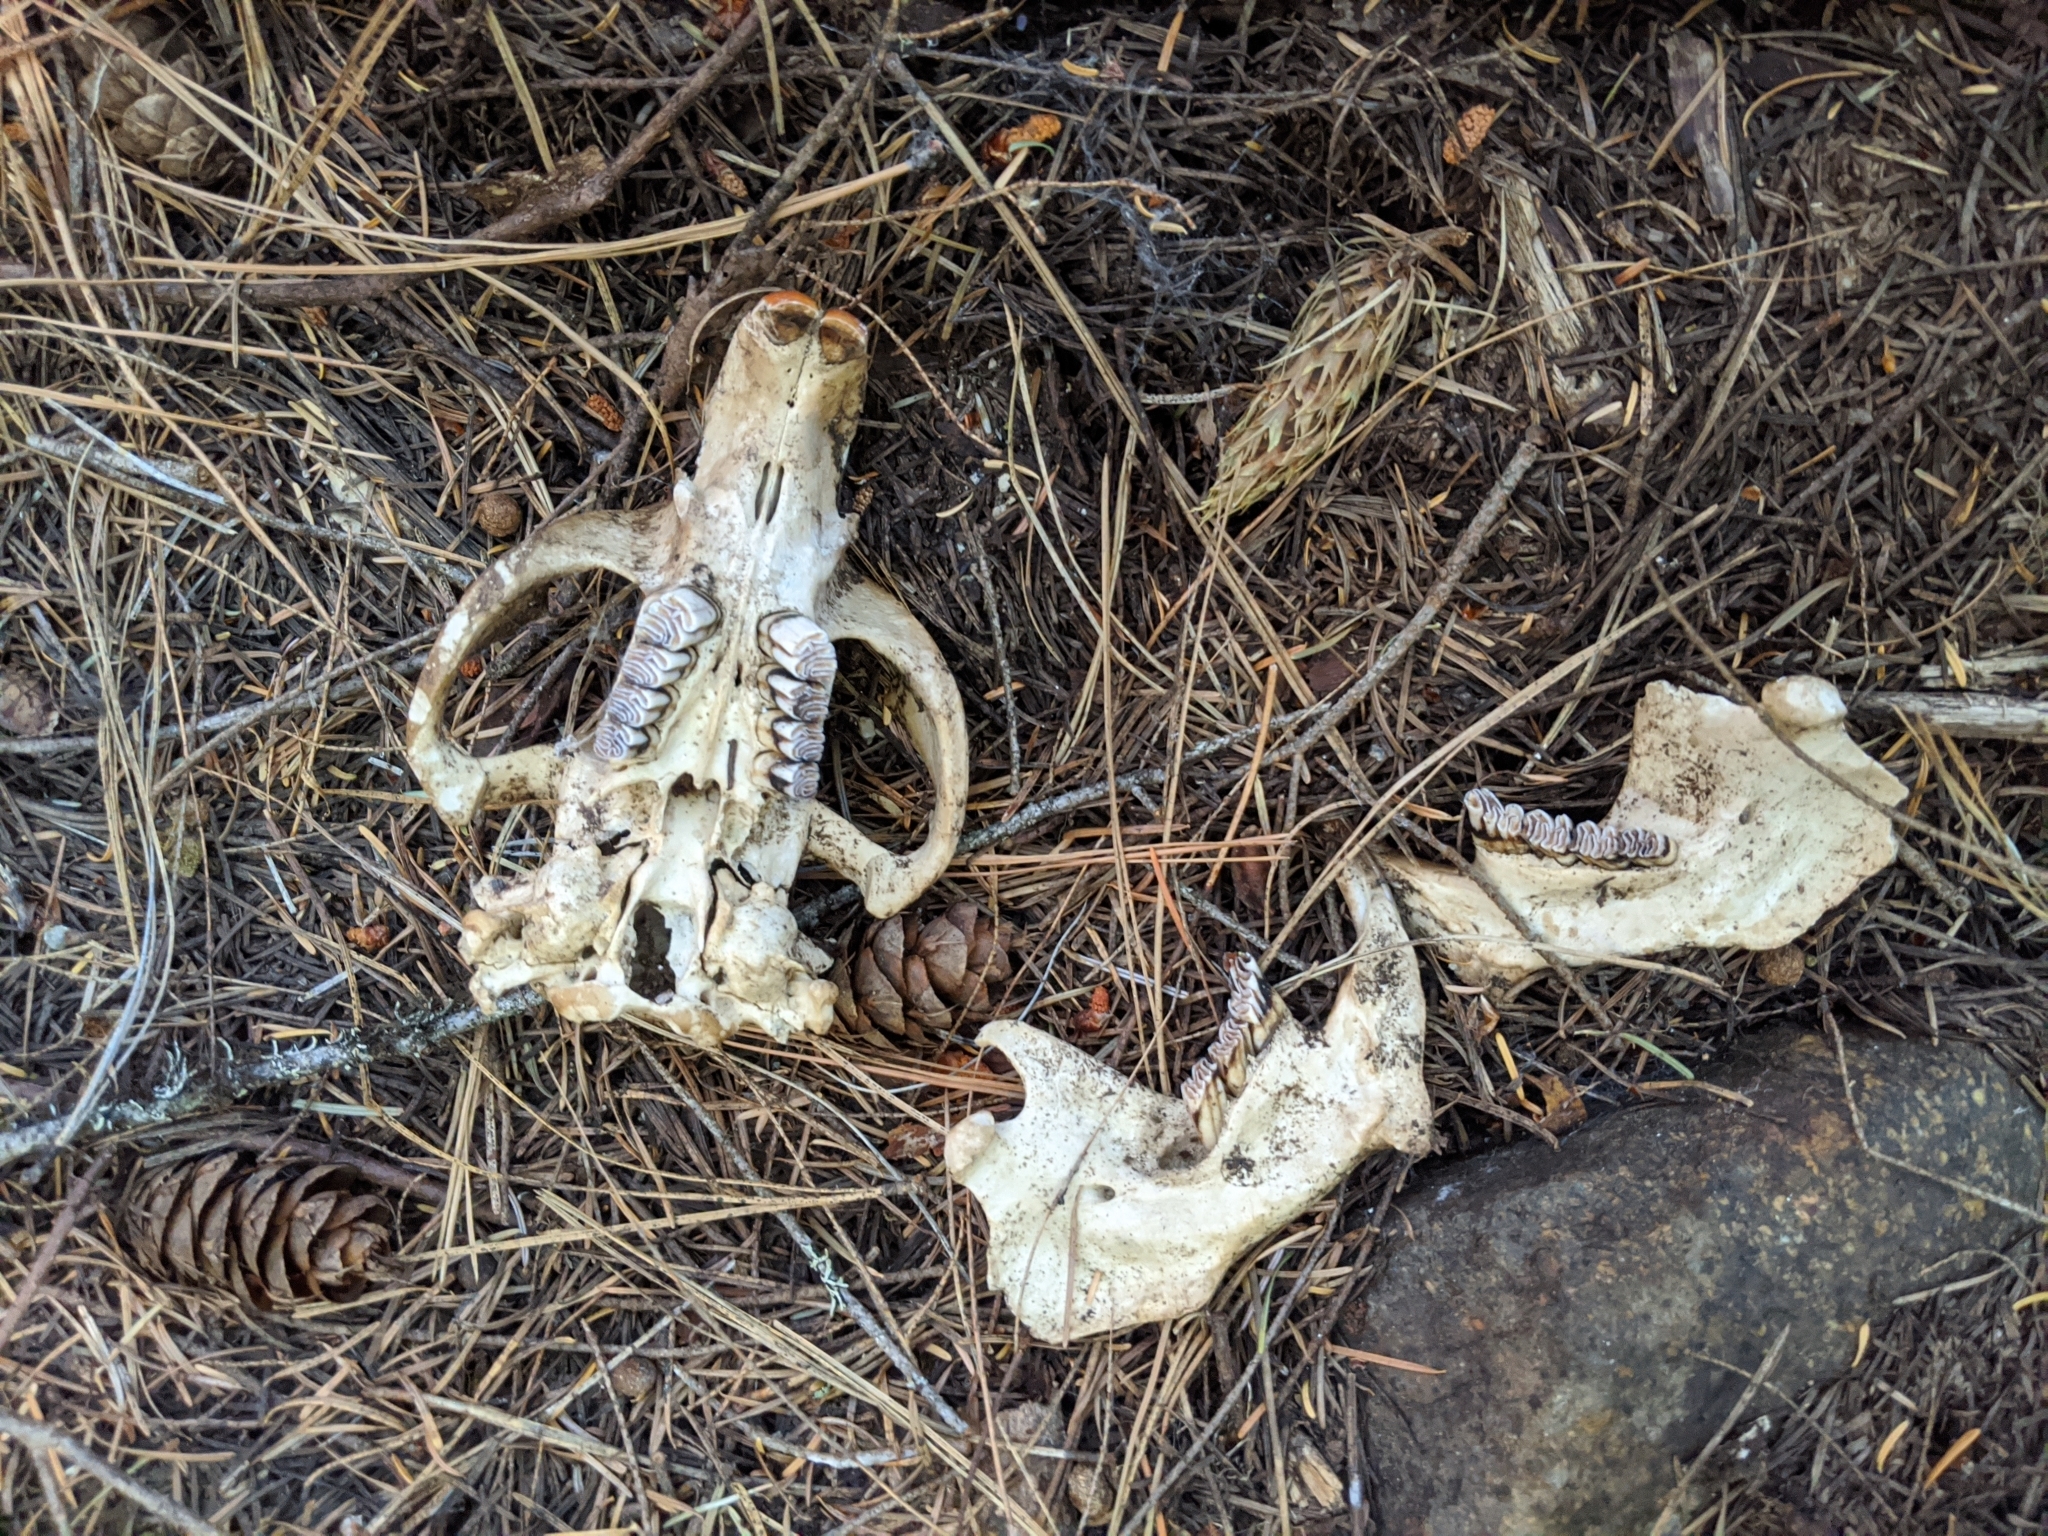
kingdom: Animalia
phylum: Chordata
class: Mammalia
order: Rodentia
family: Castoridae
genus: Castor
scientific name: Castor canadensis
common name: American beaver
